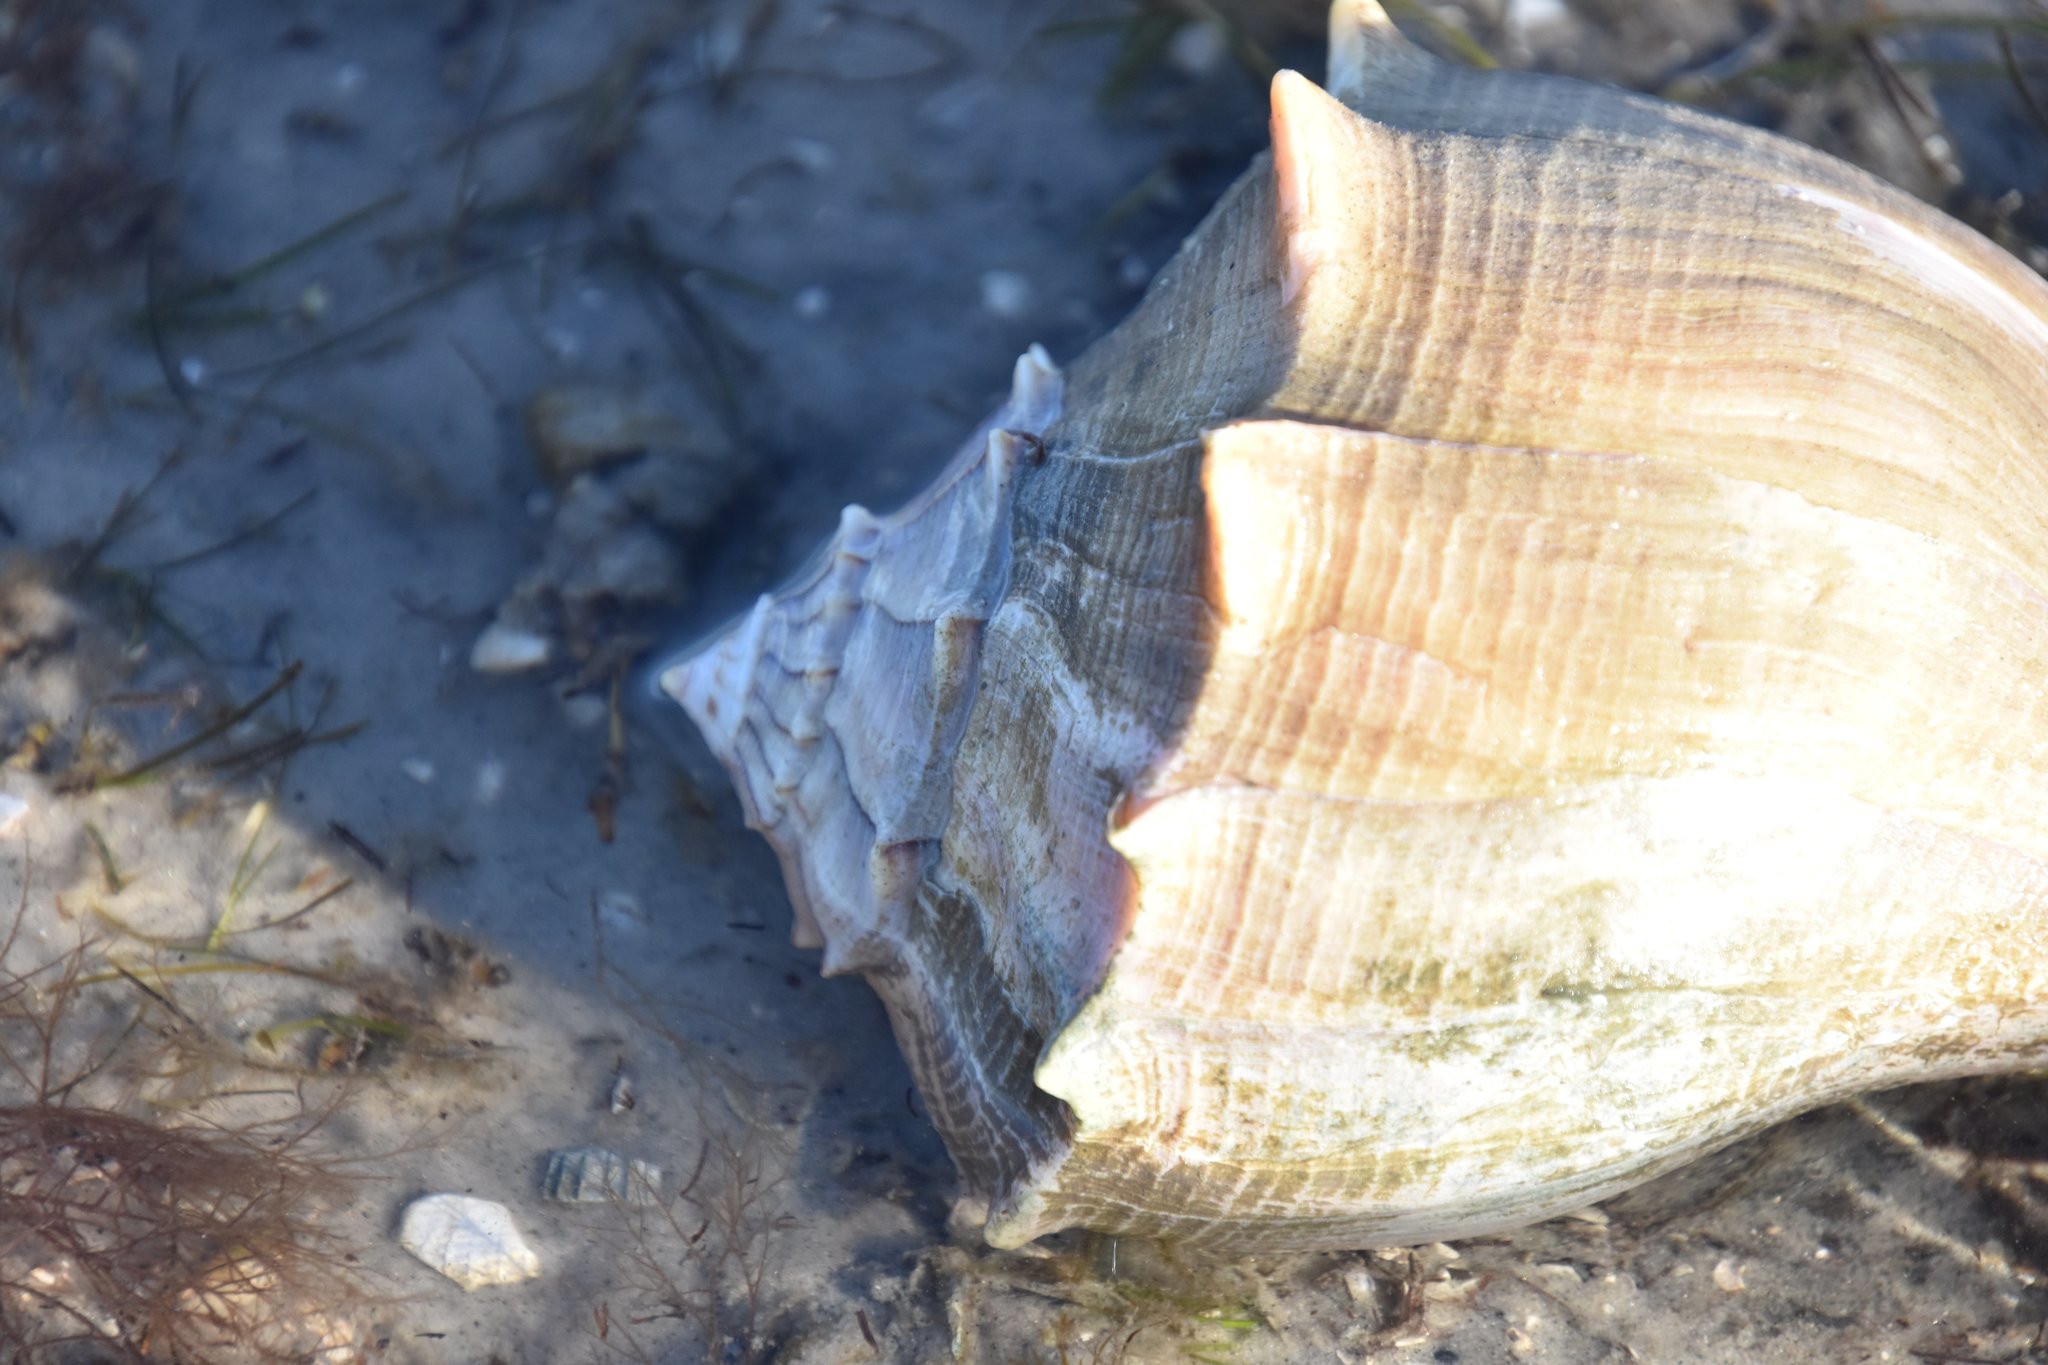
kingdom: Animalia
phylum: Mollusca
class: Gastropoda
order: Neogastropoda
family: Busyconidae
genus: Sinistrofulgur
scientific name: Sinistrofulgur sinistrum
